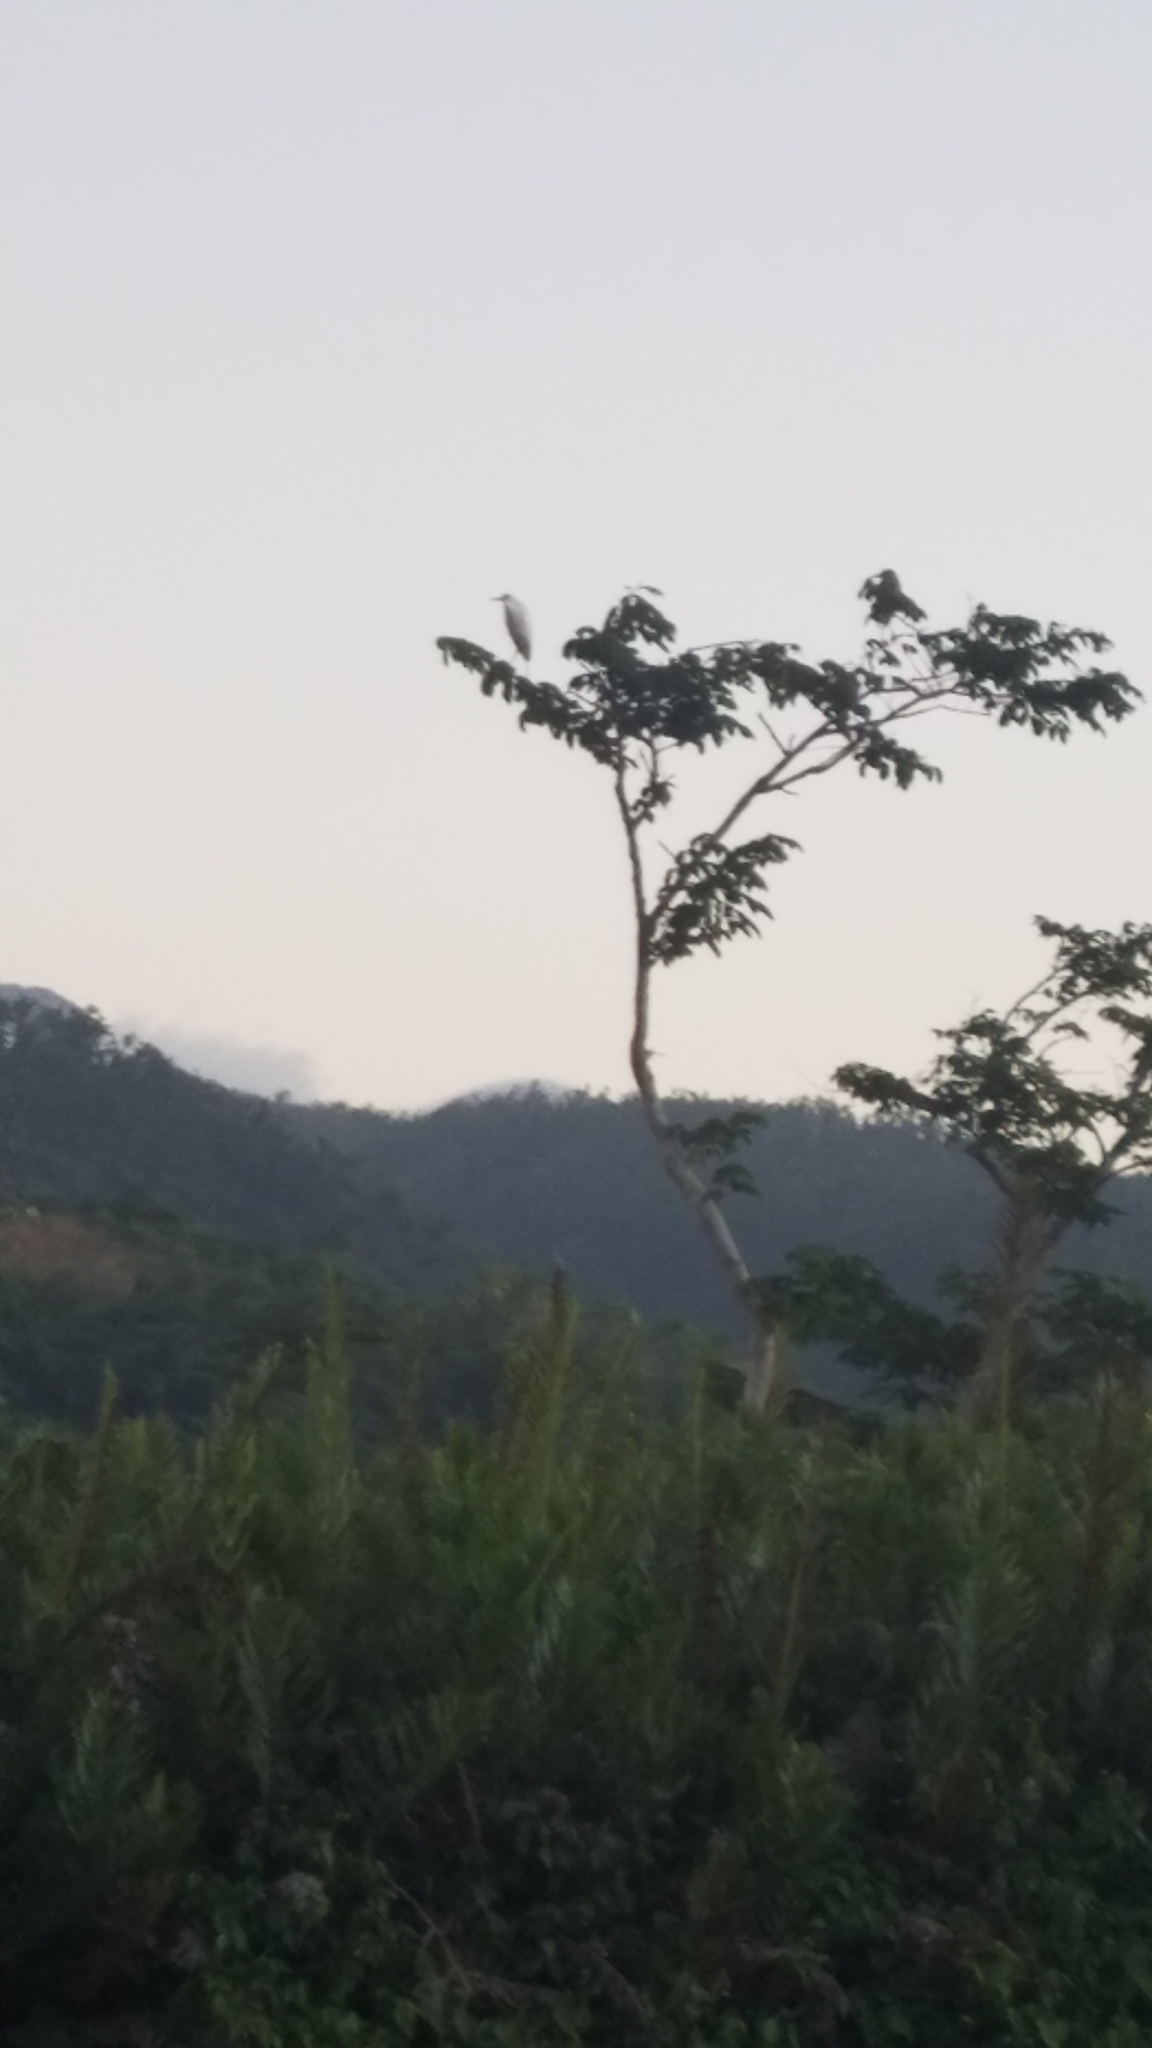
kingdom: Animalia
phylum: Chordata
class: Aves
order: Pelecaniformes
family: Ardeidae
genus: Bubulcus
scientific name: Bubulcus ibis
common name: Cattle egret
